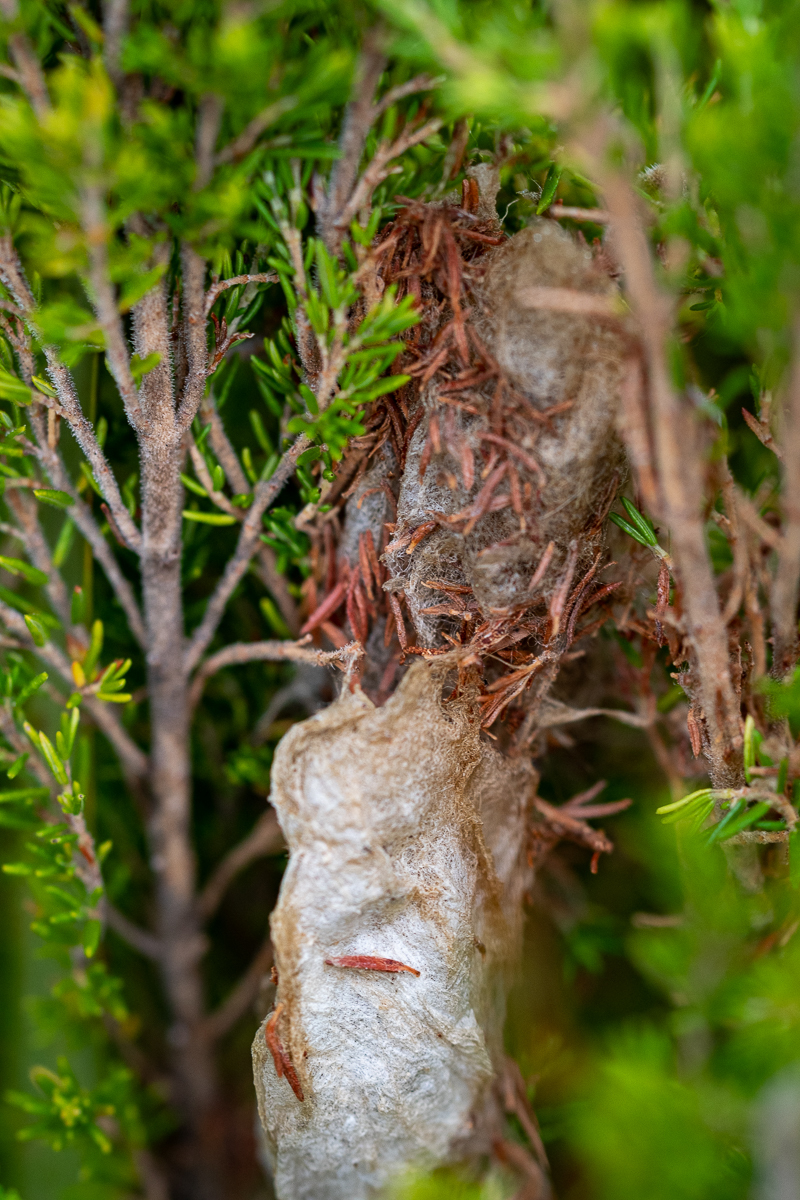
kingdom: Animalia
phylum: Arthropoda
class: Insecta
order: Lepidoptera
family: Lasiocampidae
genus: Eutricha
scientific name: Eutricha capensis
